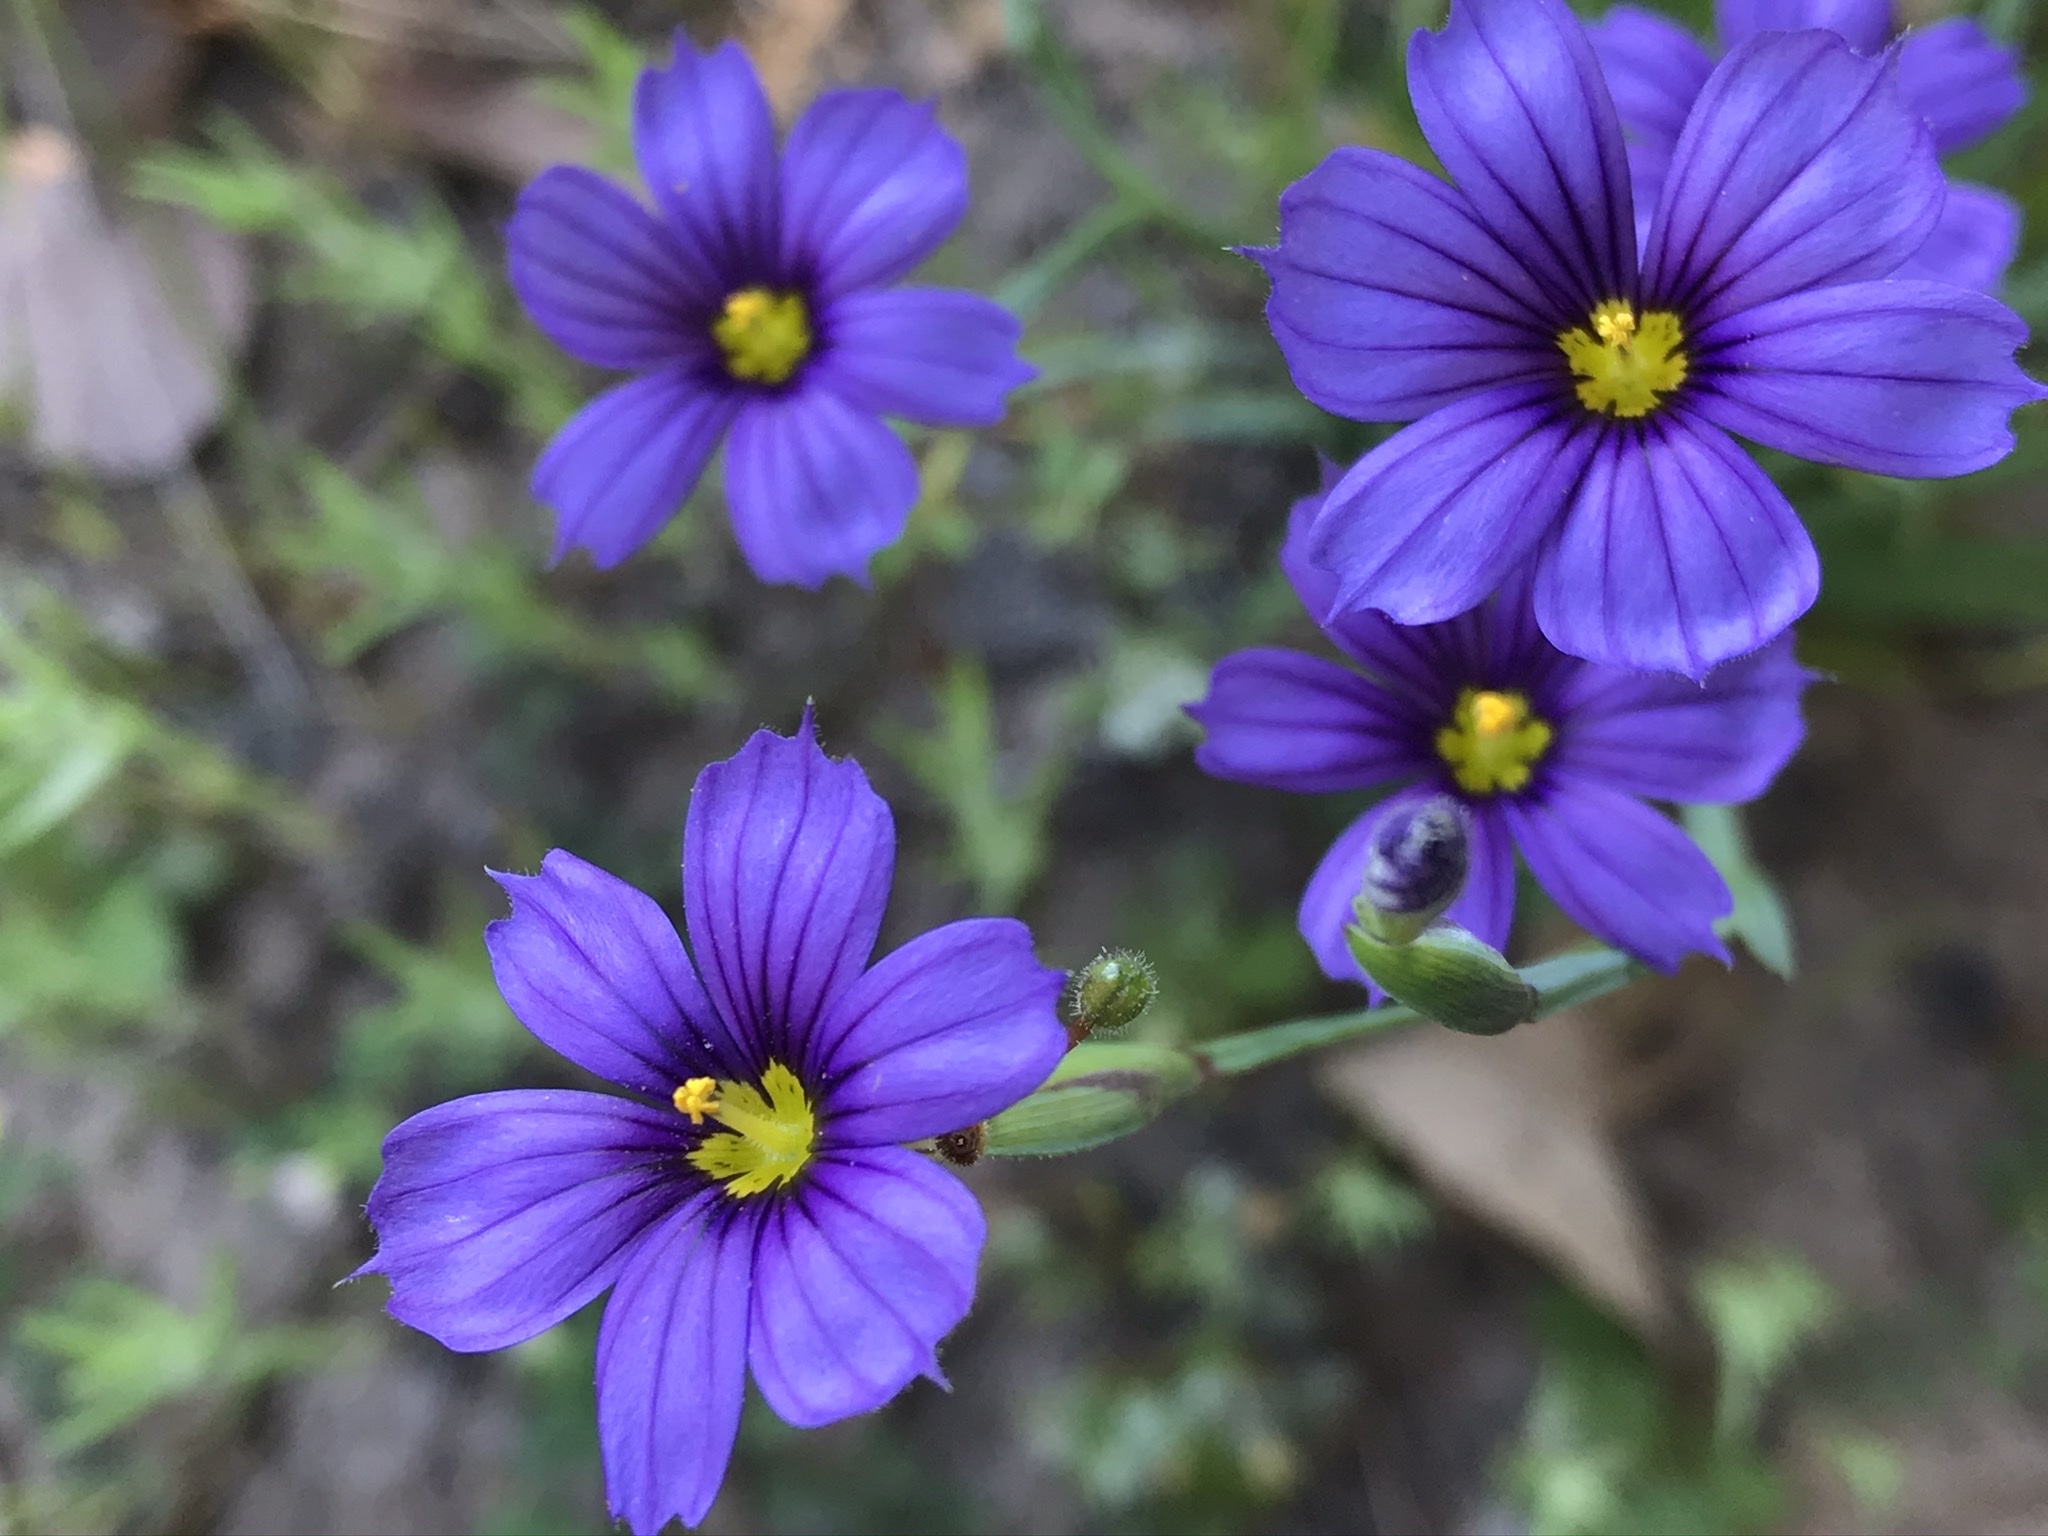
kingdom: Plantae
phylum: Tracheophyta
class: Liliopsida
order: Asparagales
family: Iridaceae
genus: Sisyrinchium
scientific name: Sisyrinchium bellum
